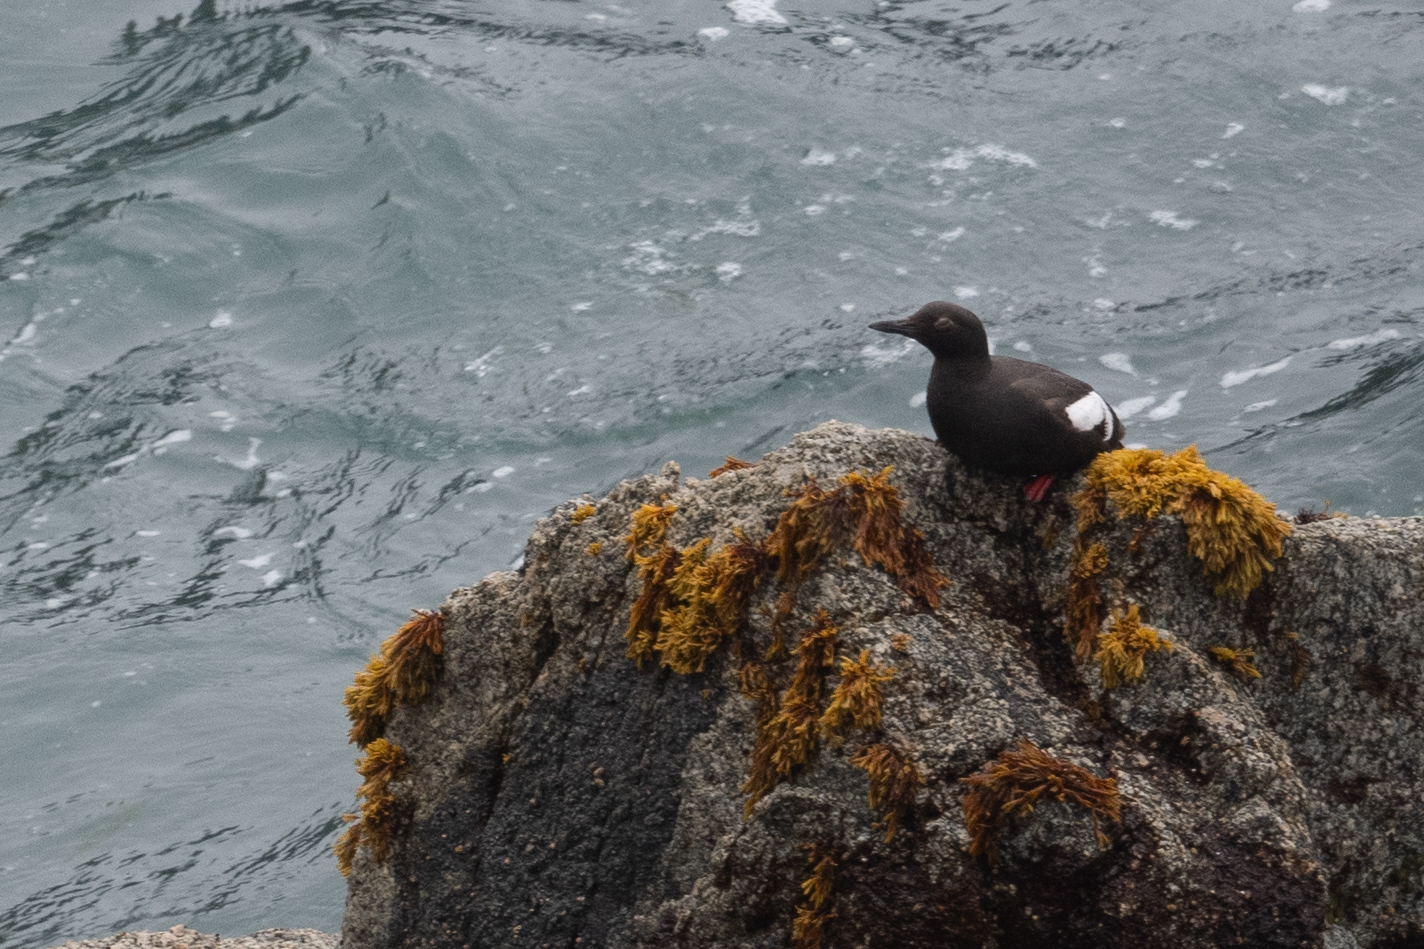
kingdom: Animalia
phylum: Chordata
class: Aves
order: Charadriiformes
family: Alcidae
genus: Cepphus
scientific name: Cepphus columba
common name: Pigeon guillemot
